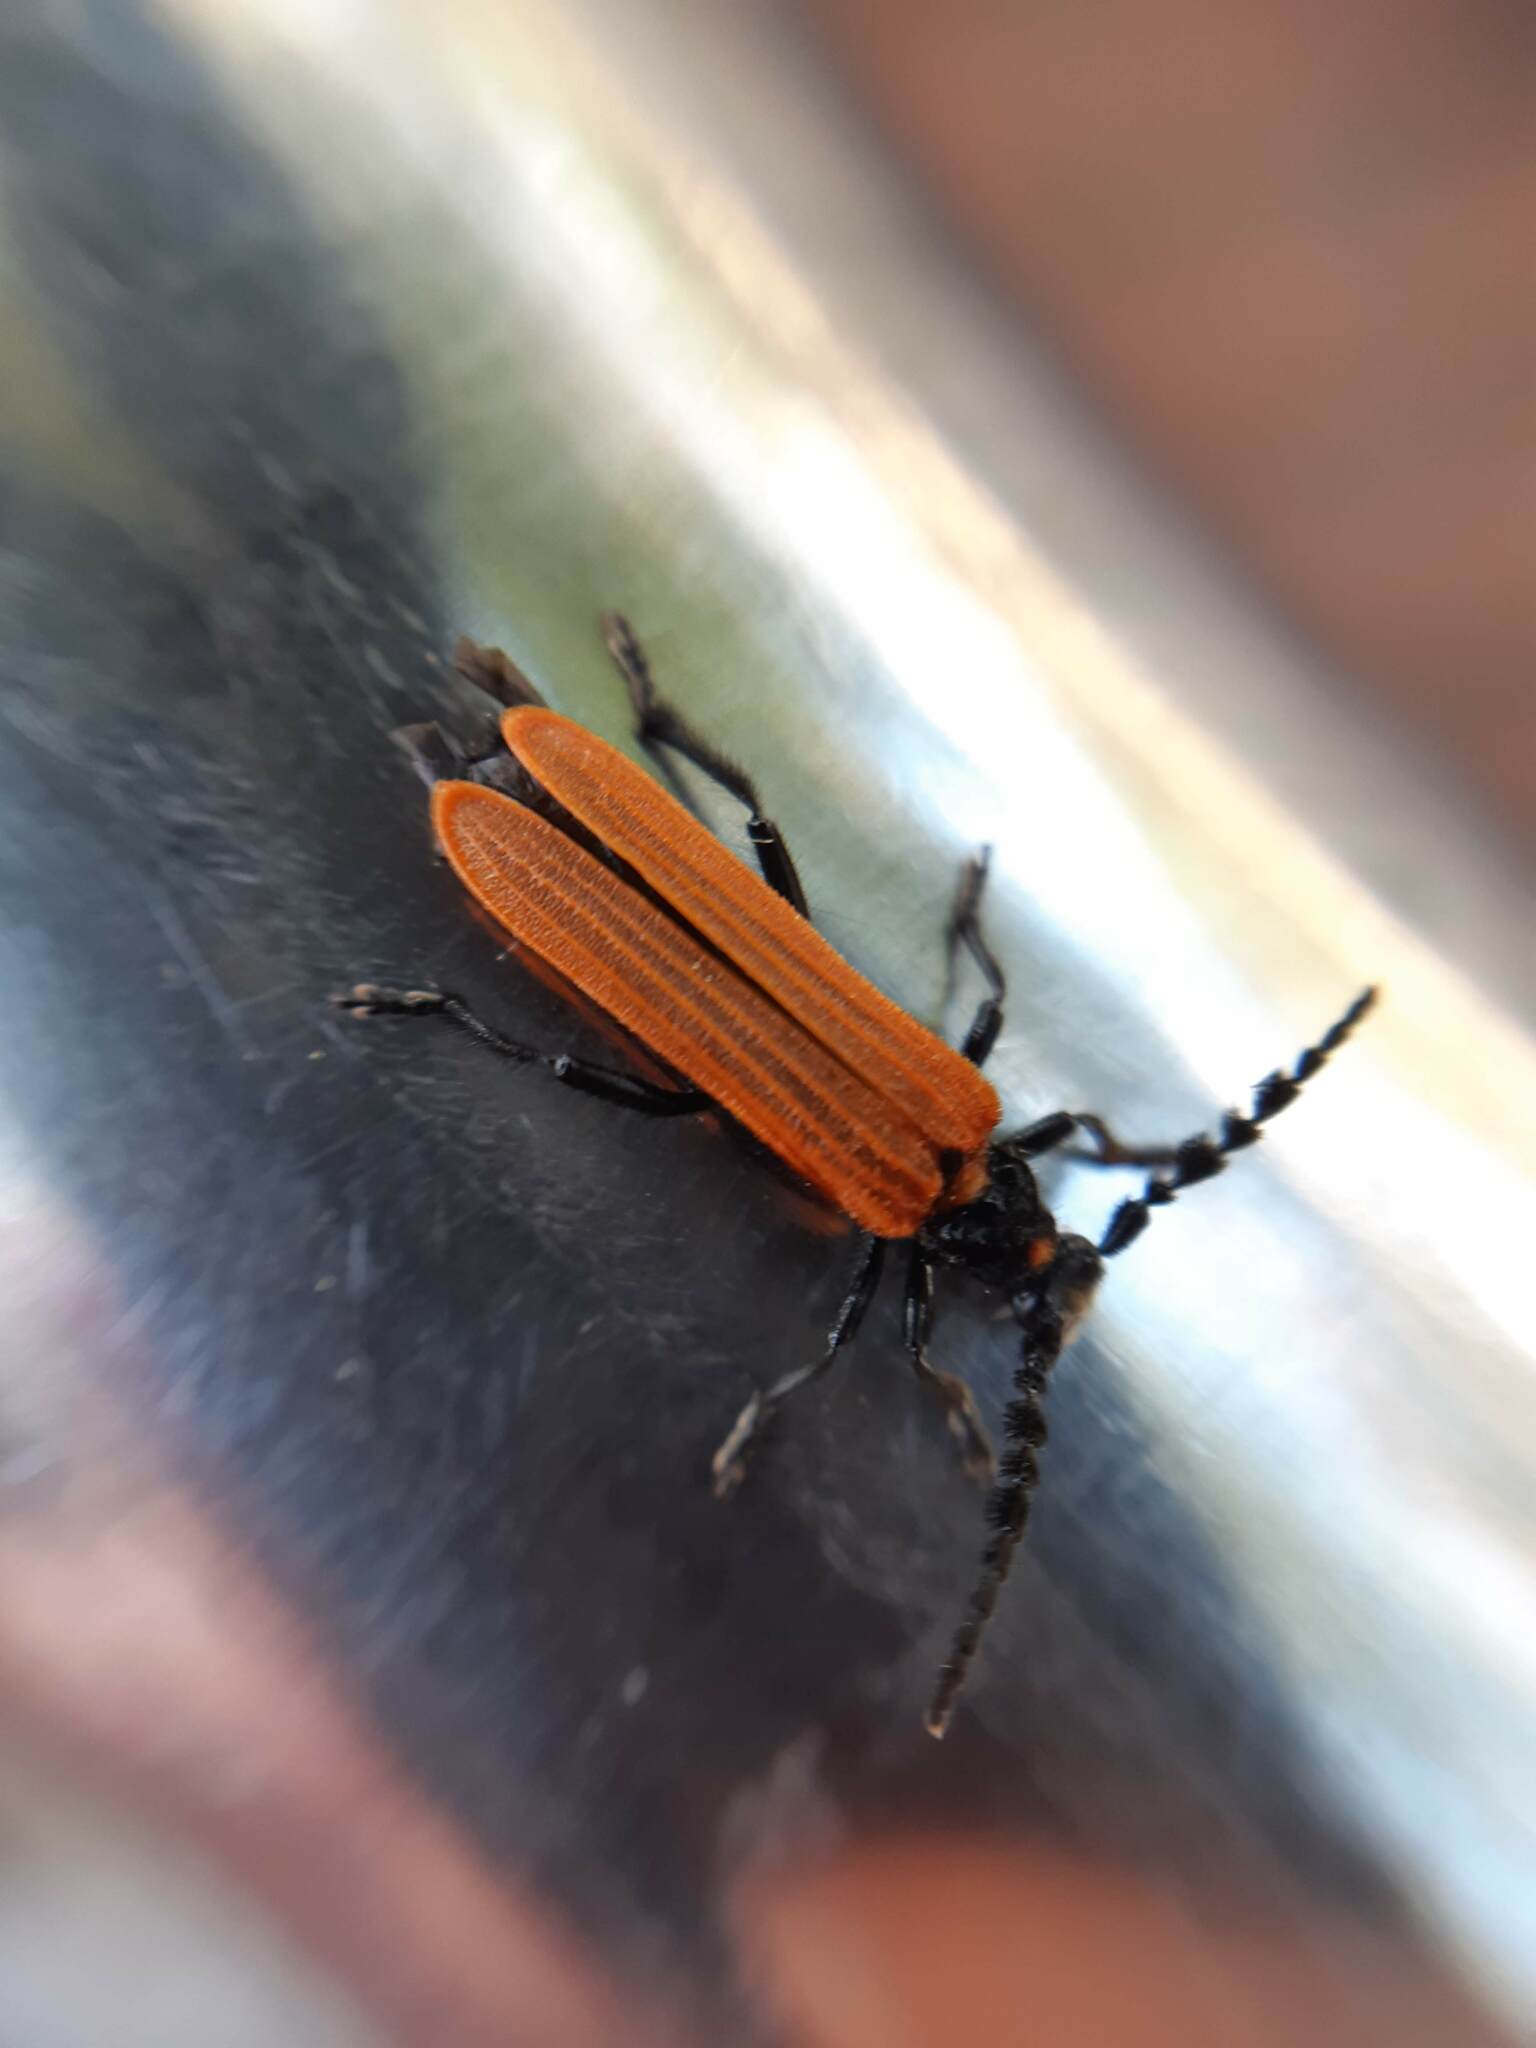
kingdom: Animalia
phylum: Arthropoda
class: Insecta
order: Coleoptera
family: Cerambycidae
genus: Eroschema
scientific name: Eroschema poweri
